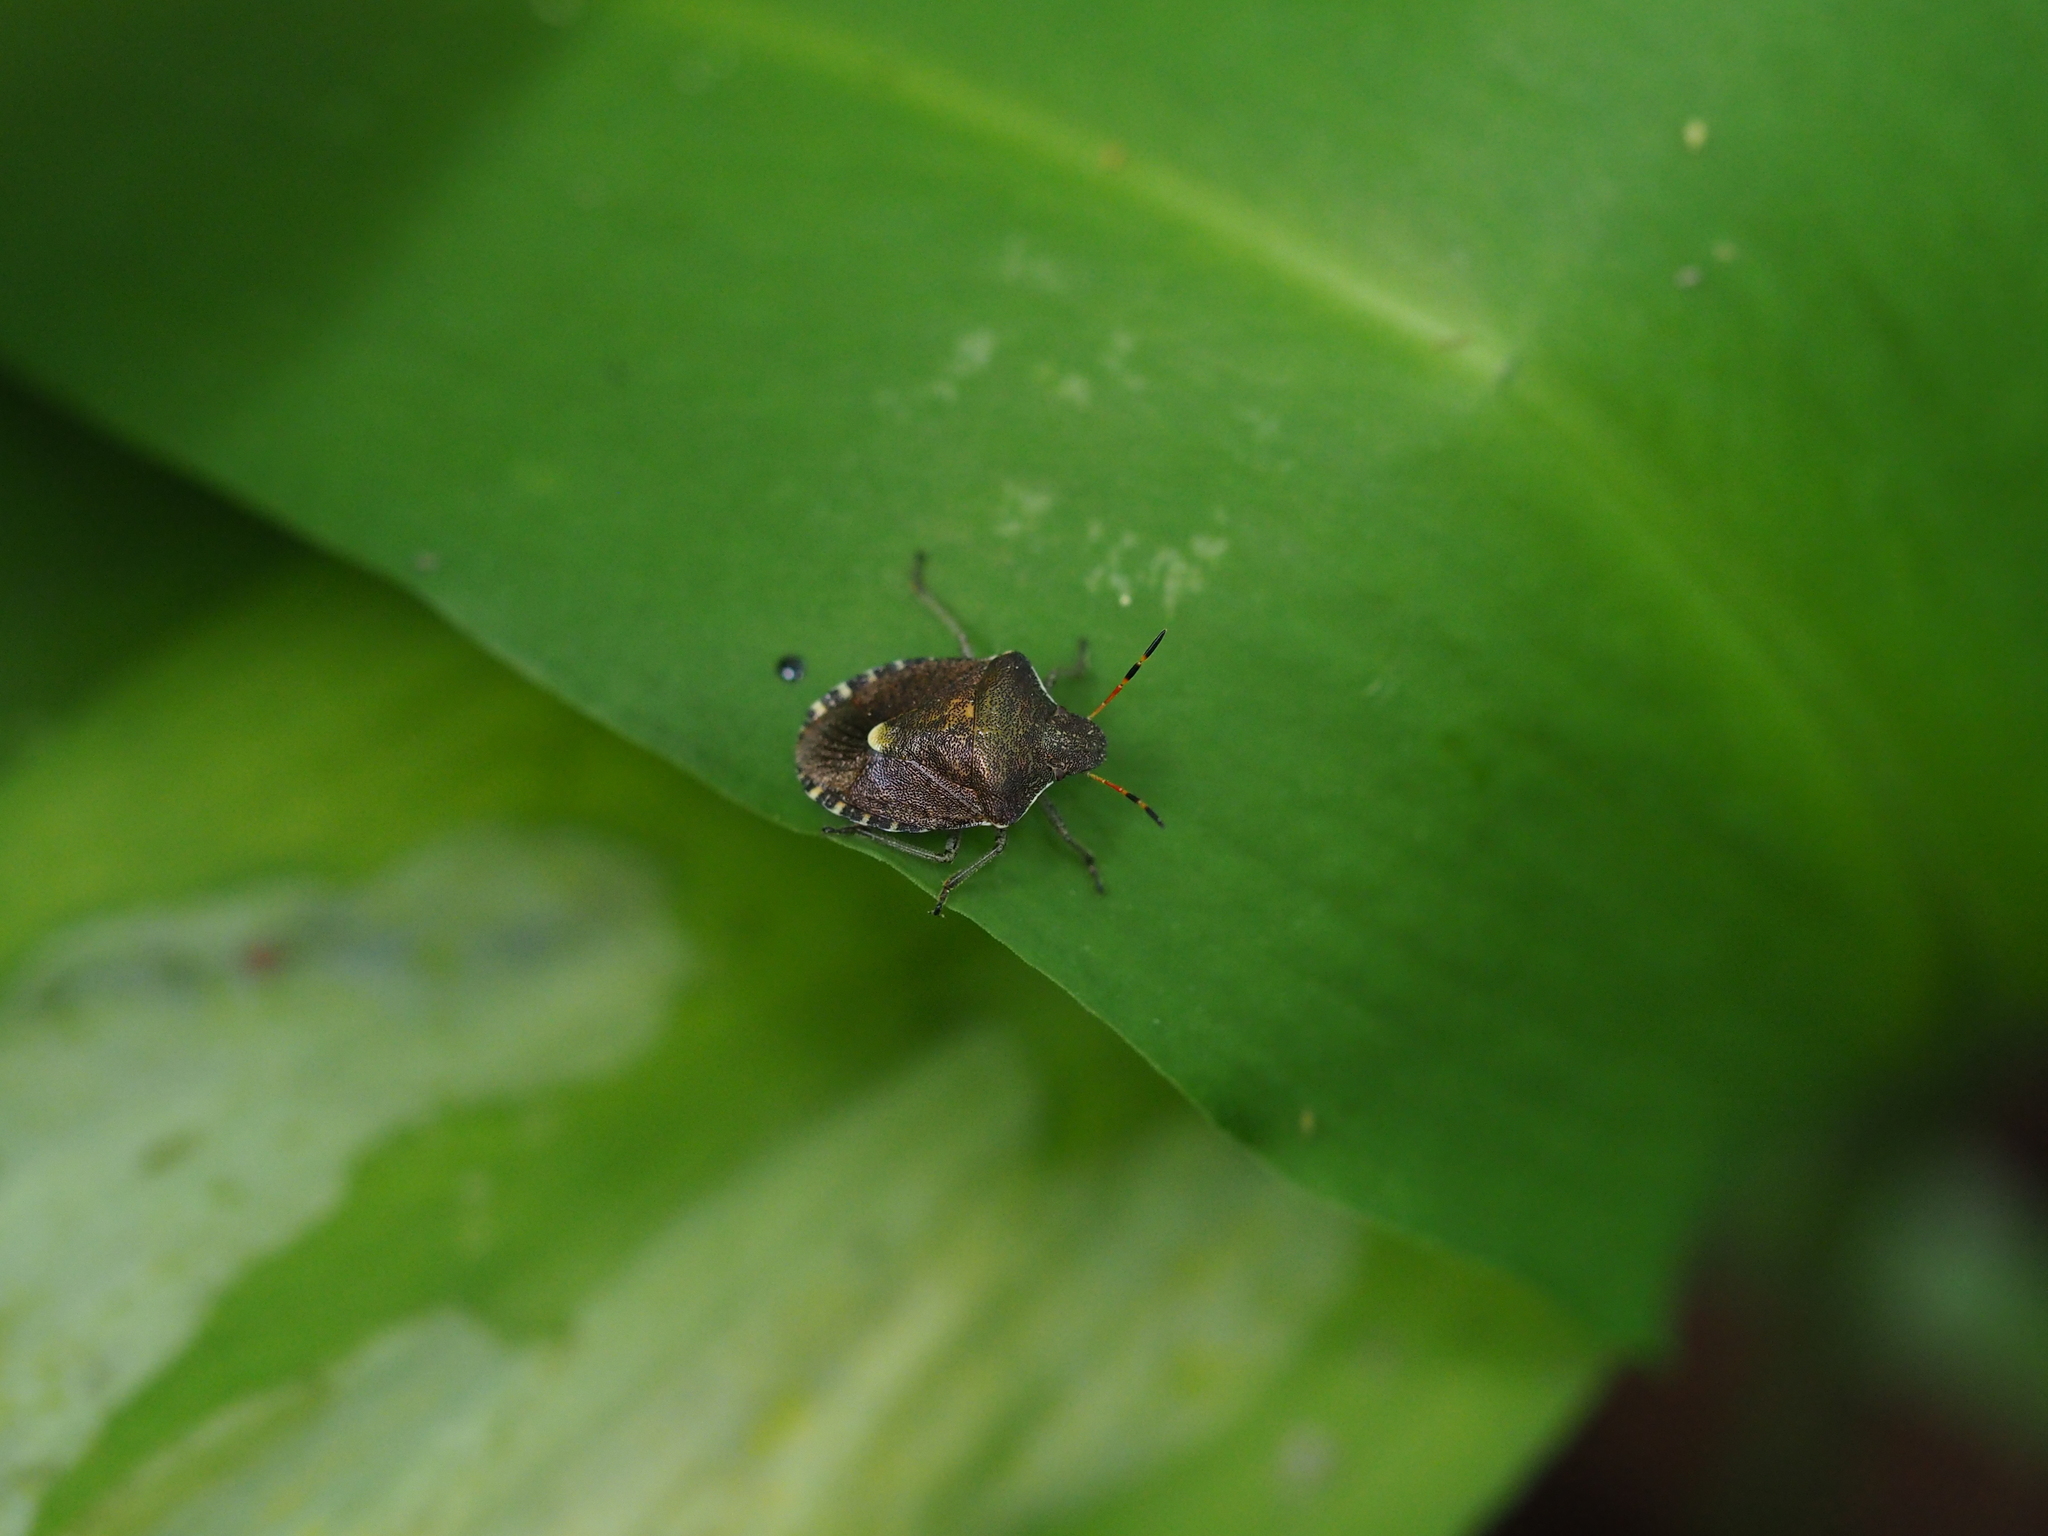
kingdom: Animalia
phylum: Arthropoda
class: Insecta
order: Hemiptera
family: Pentatomidae
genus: Holcostethus
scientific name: Holcostethus strictus
